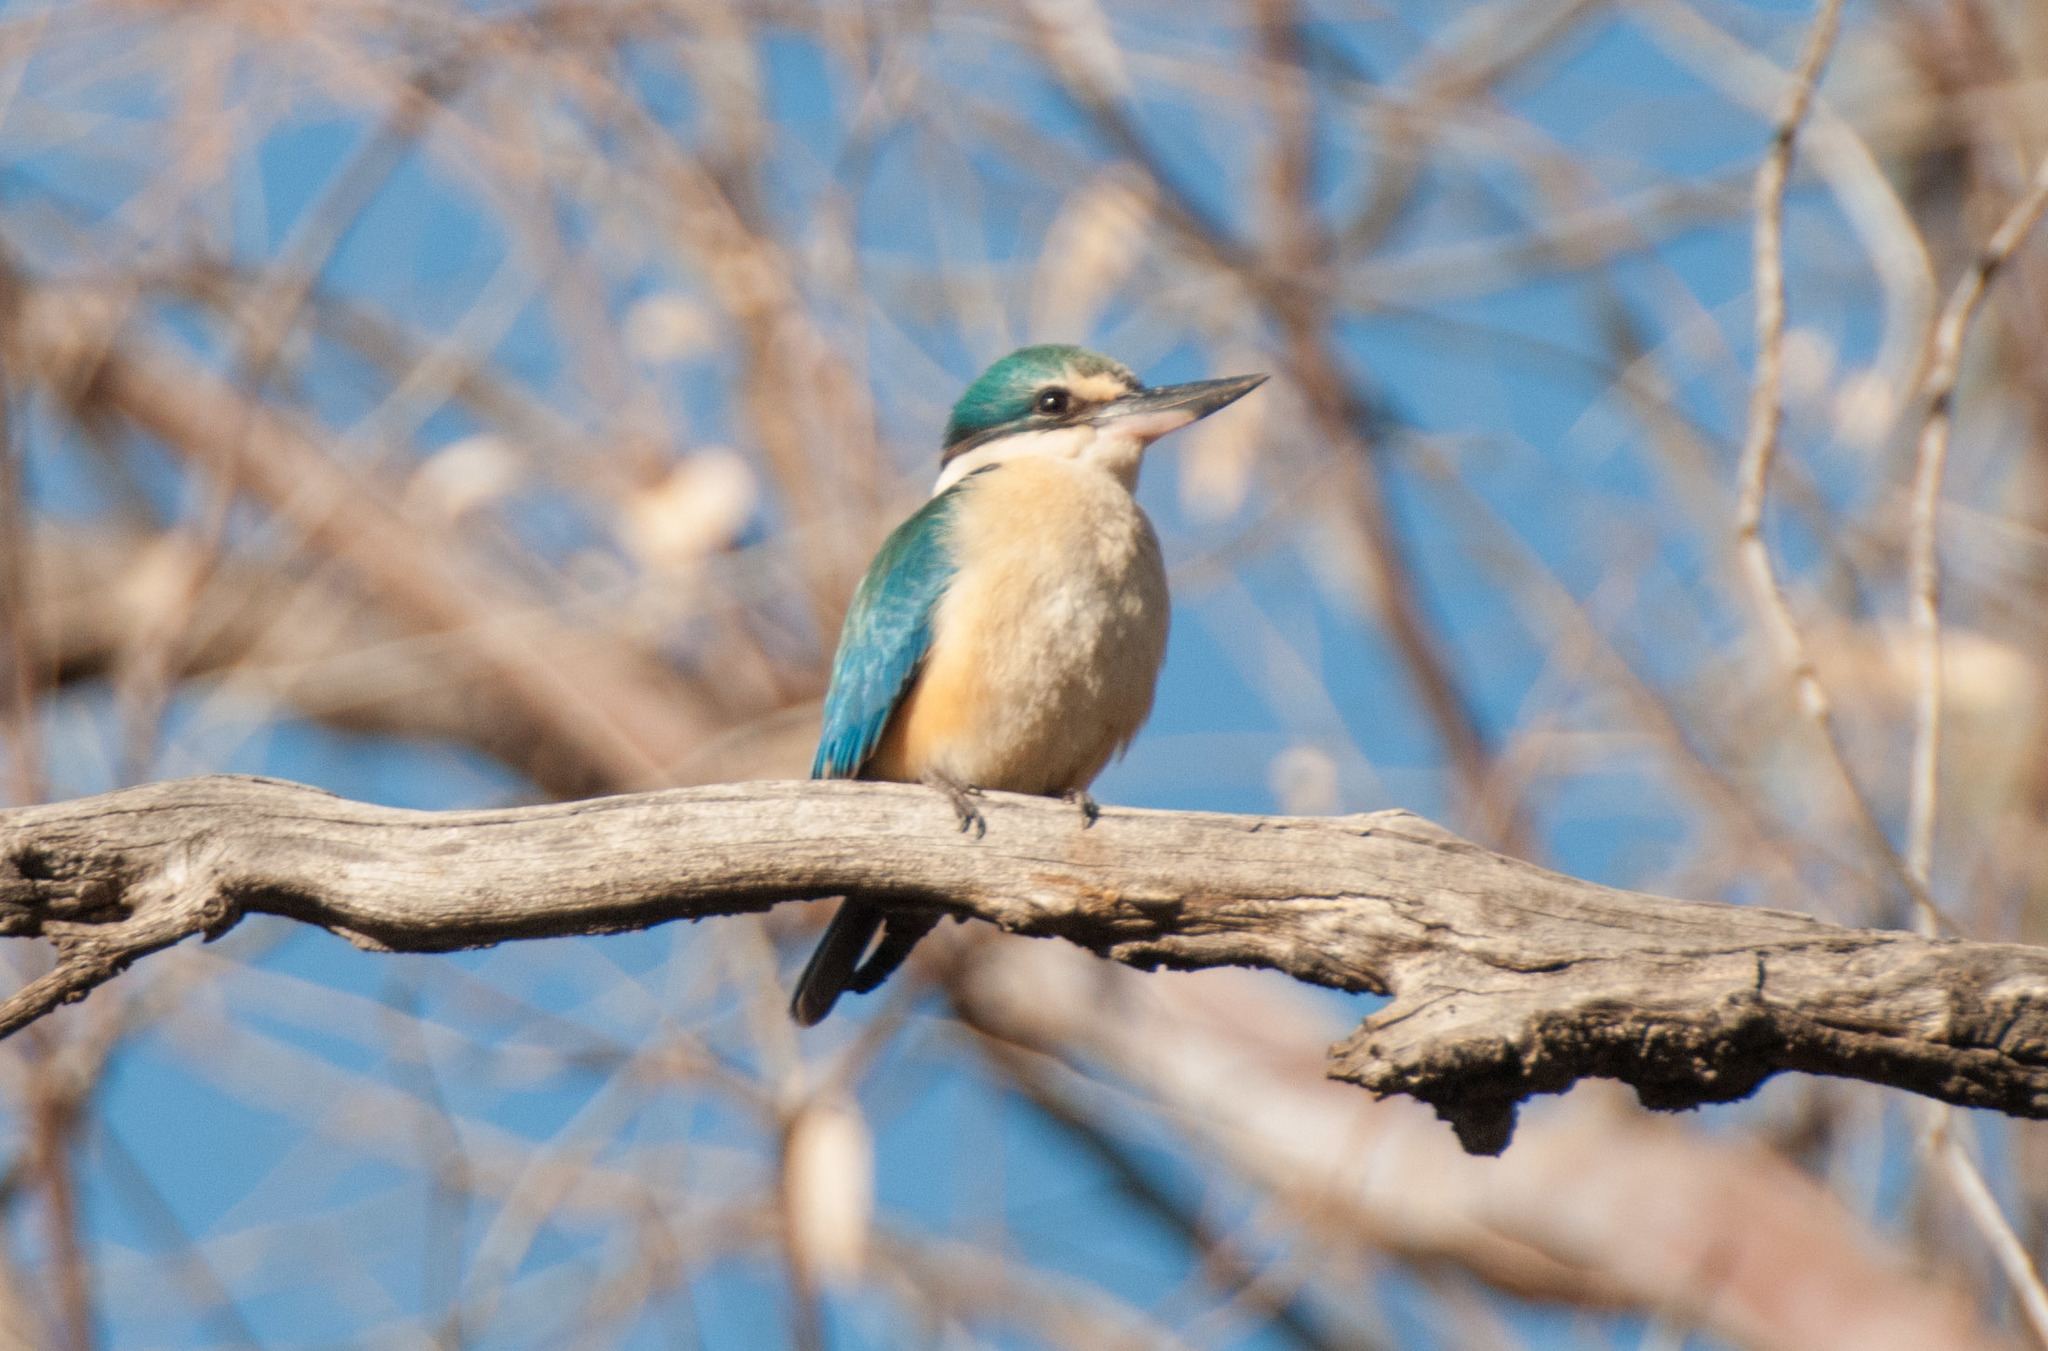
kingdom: Animalia
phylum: Chordata
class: Aves
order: Coraciiformes
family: Alcedinidae
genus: Todiramphus
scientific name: Todiramphus sanctus
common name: Sacred kingfisher
